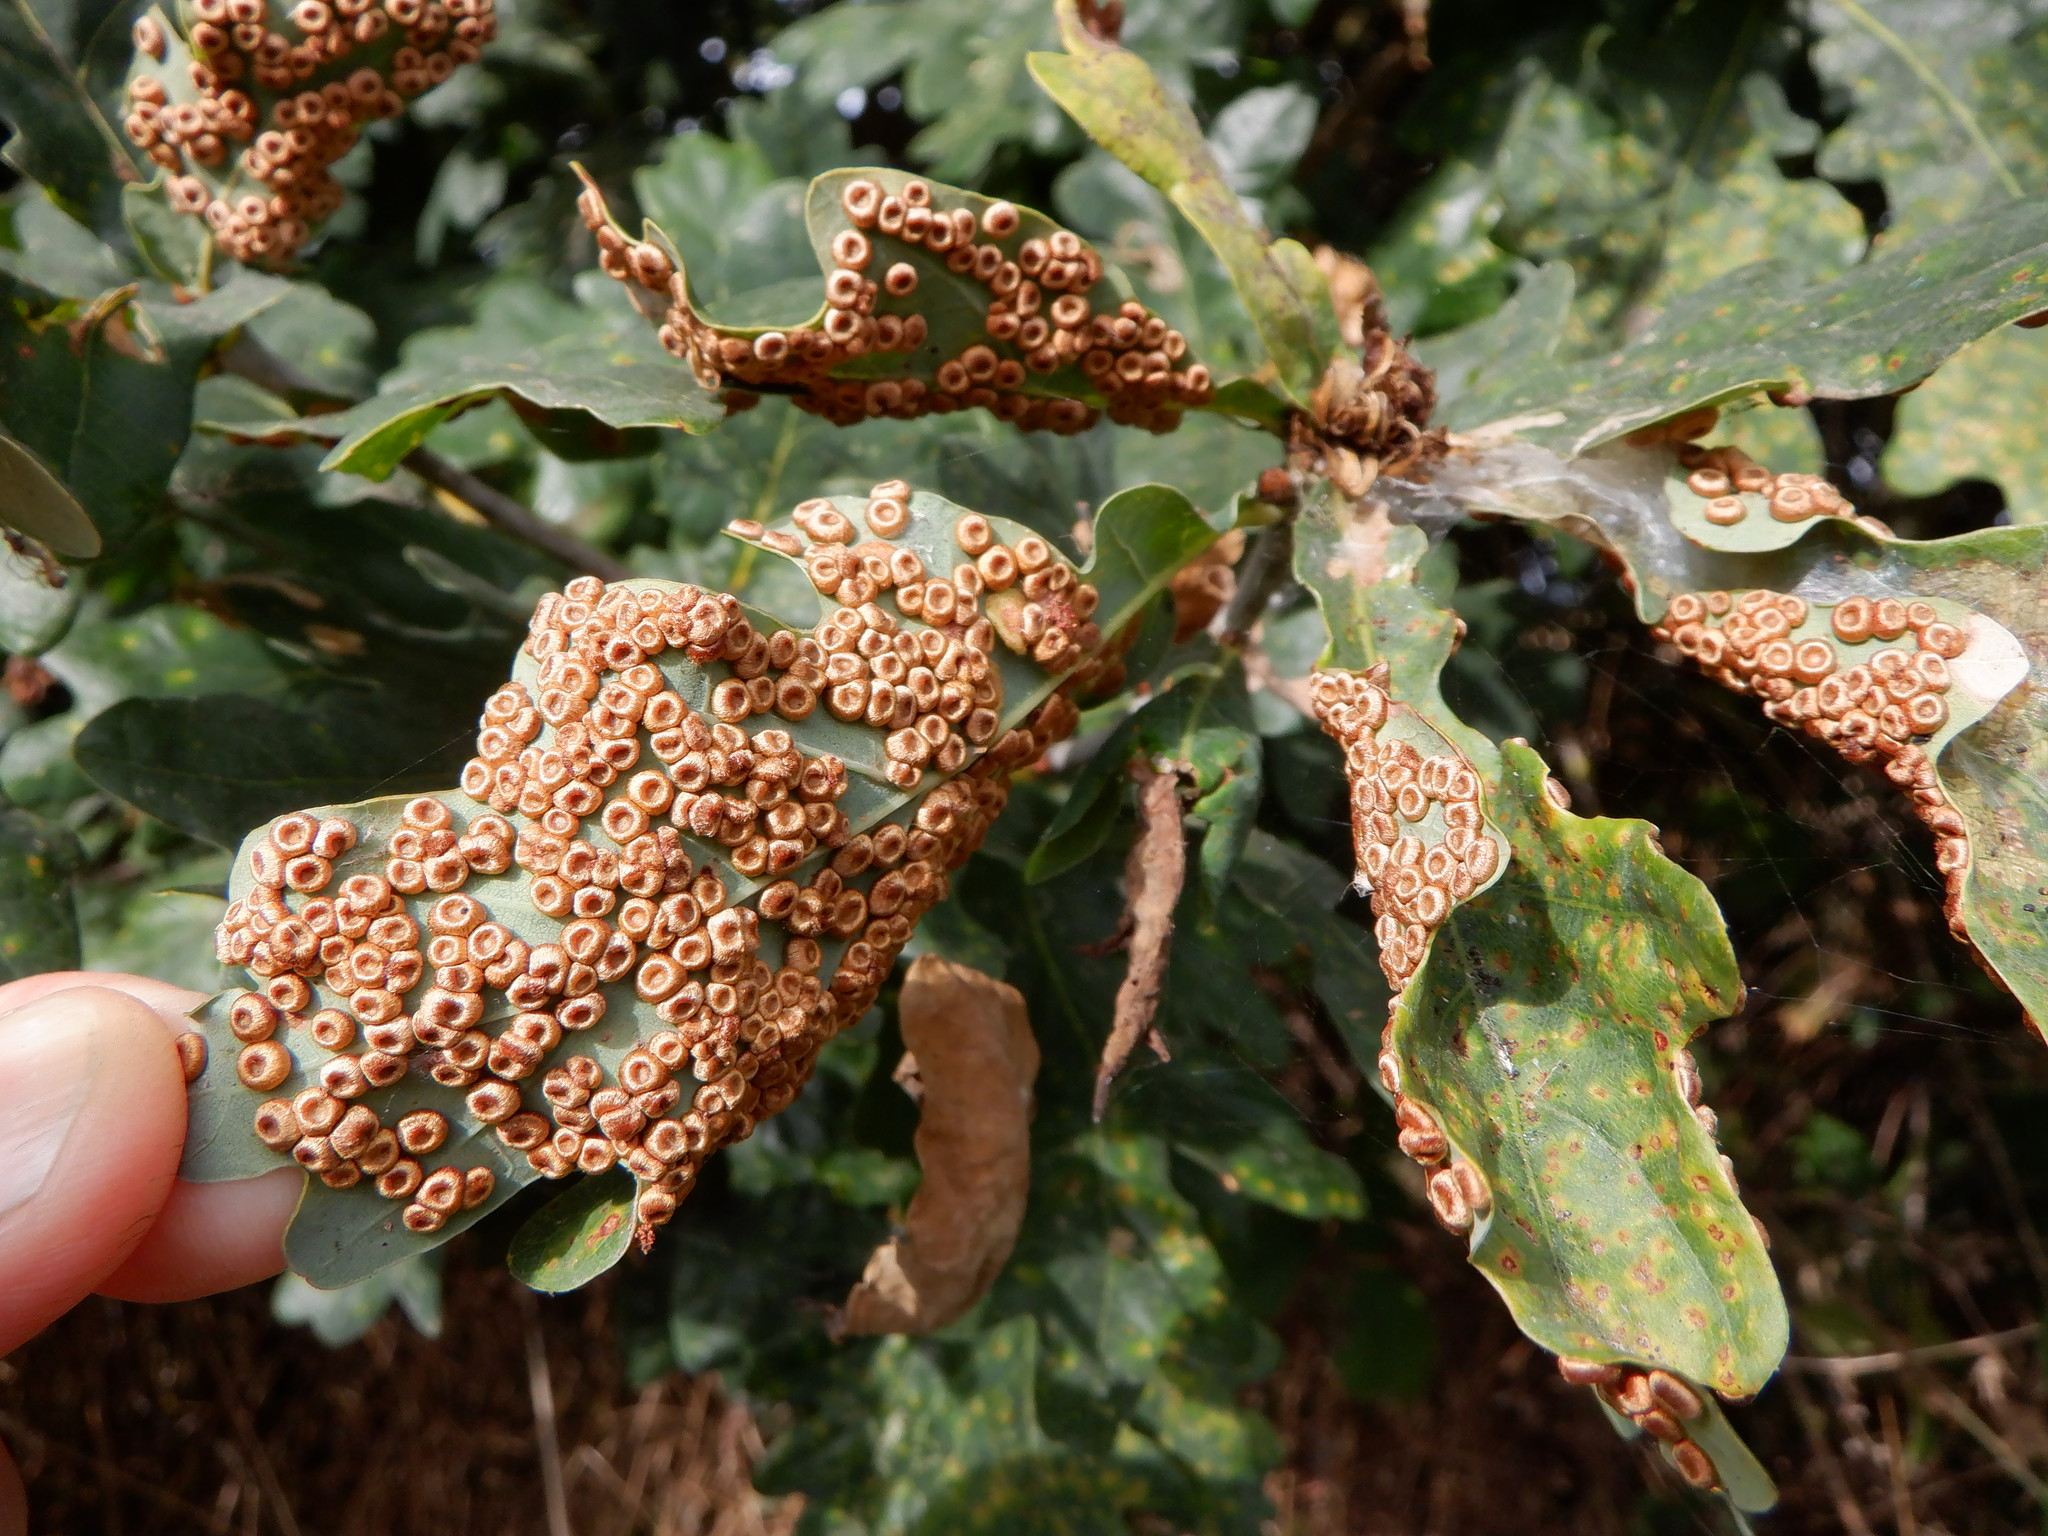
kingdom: Animalia
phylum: Arthropoda
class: Insecta
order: Hymenoptera
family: Cynipidae
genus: Neuroterus
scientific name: Neuroterus numismalis
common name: Silk-button spangle gall
